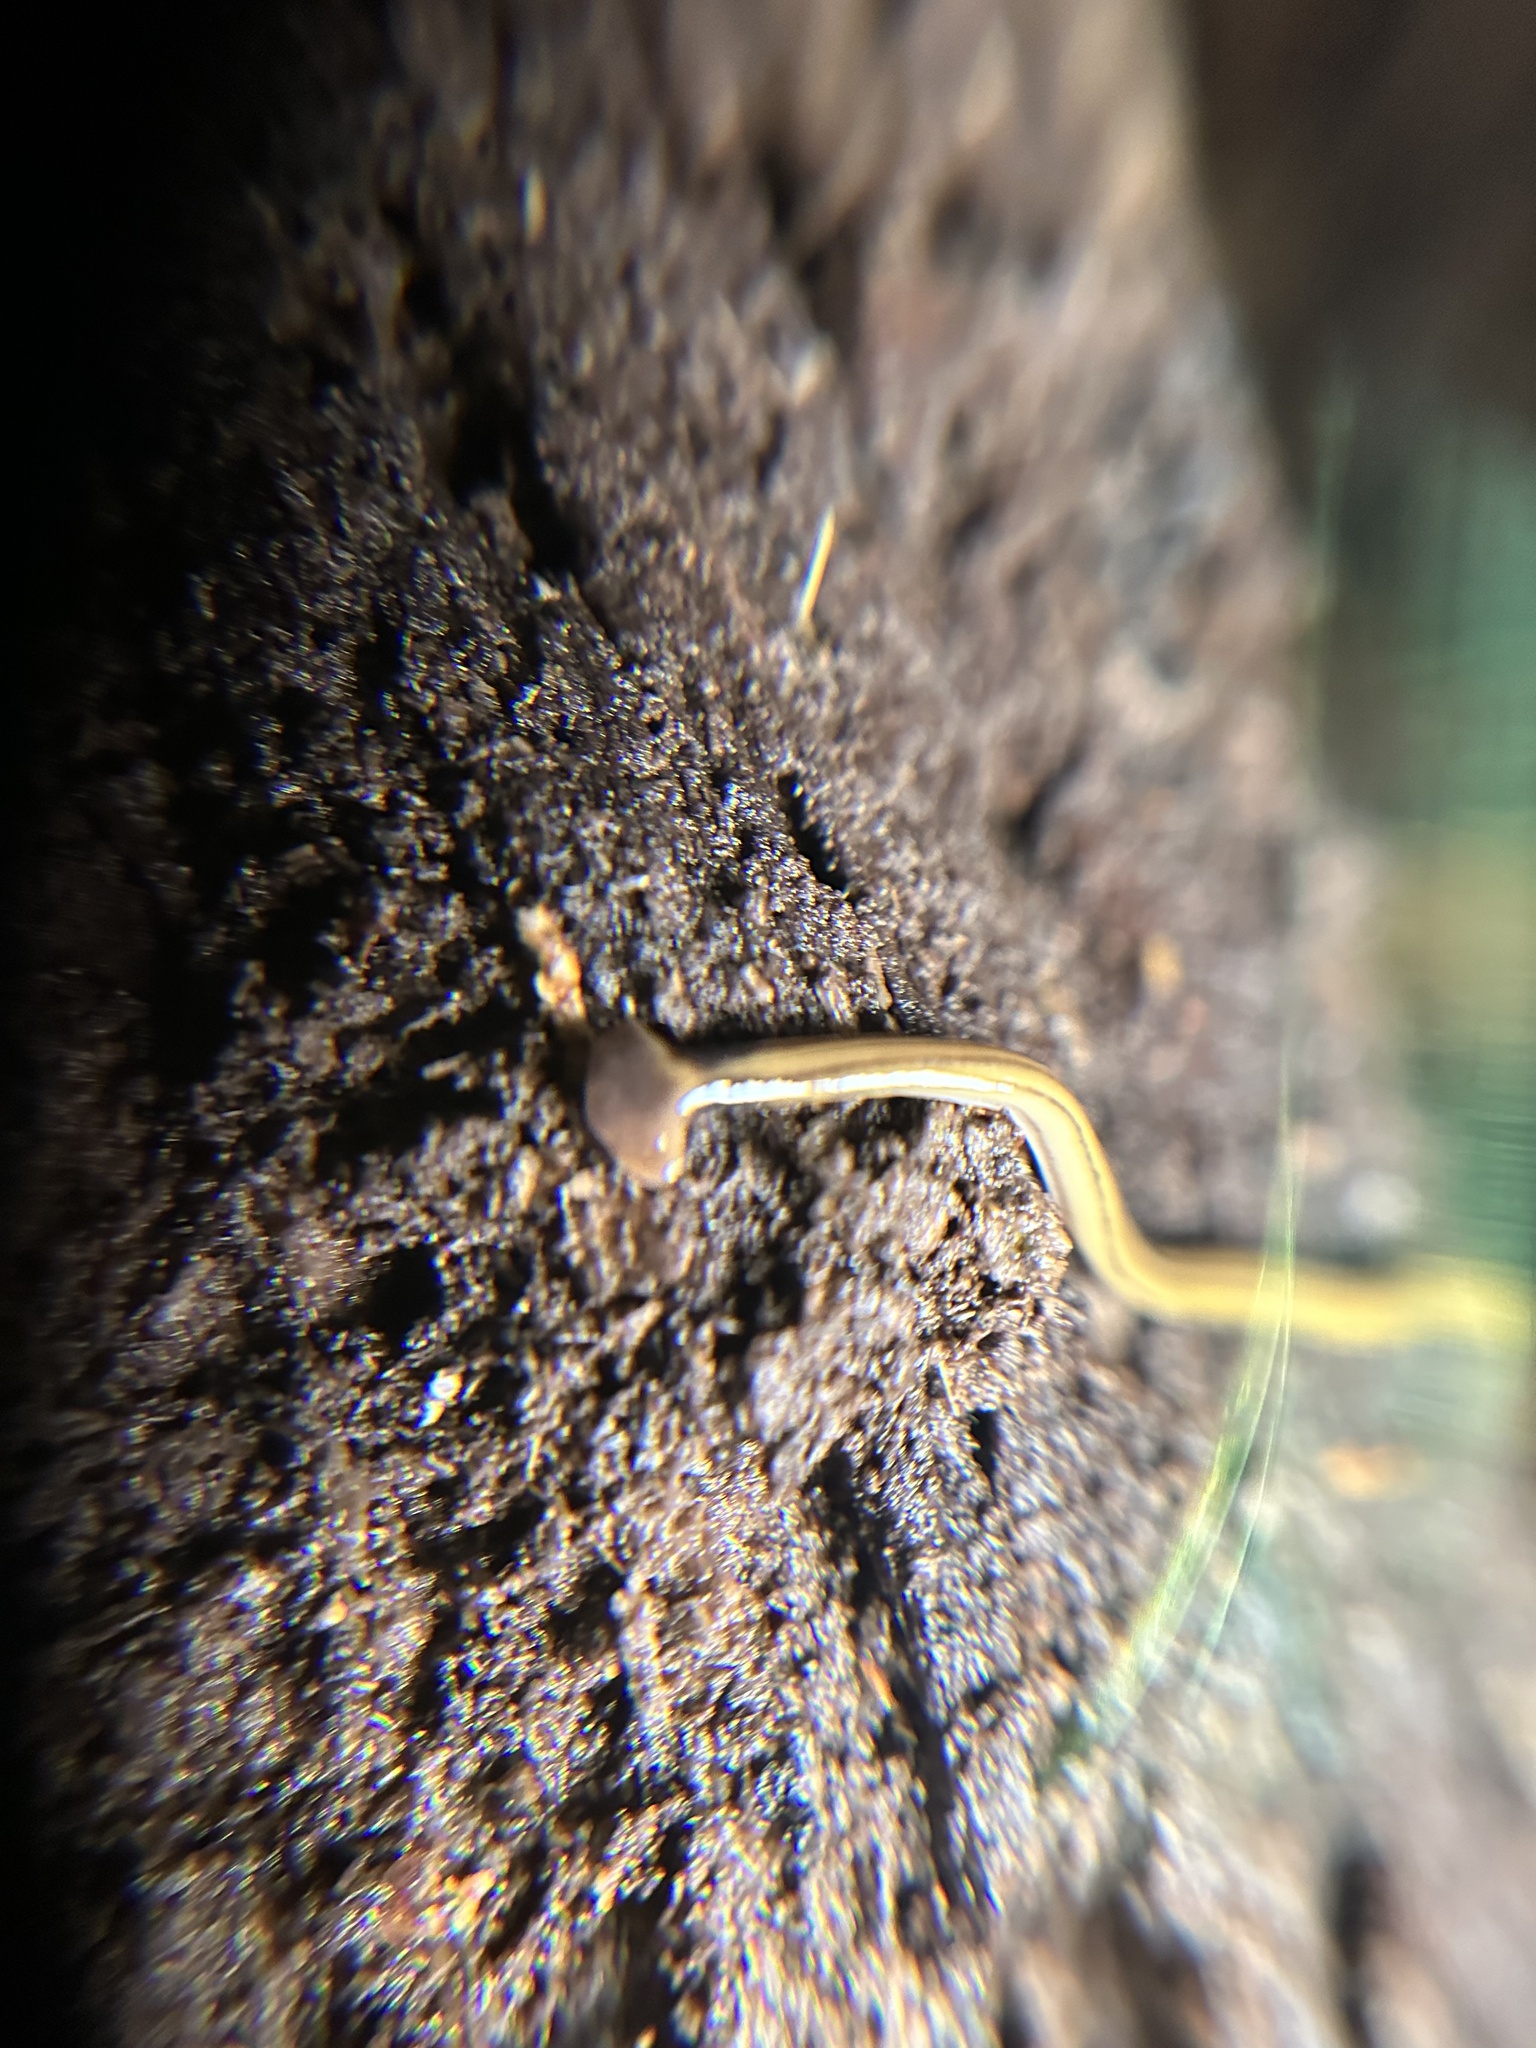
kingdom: Animalia
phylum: Platyhelminthes
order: Tricladida
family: Geoplanidae
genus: Bipalium
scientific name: Bipalium kewense
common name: Hammerhead flatworm
